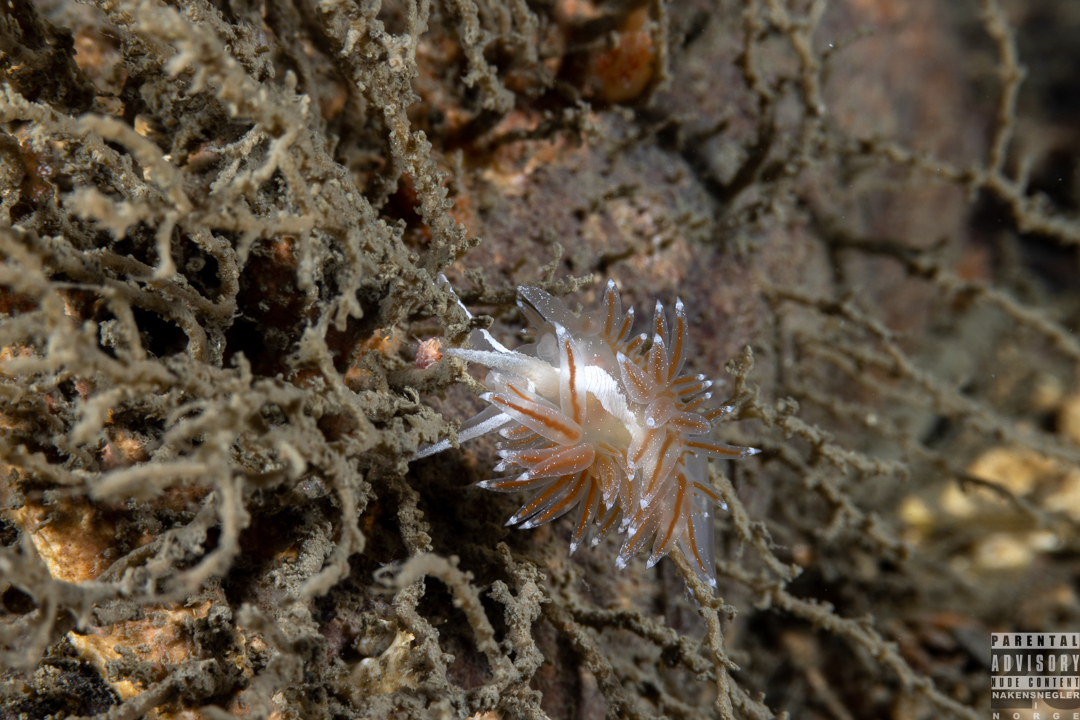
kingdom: Animalia
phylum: Mollusca
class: Gastropoda
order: Nudibranchia
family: Coryphellidae
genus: Coryphella
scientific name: Coryphella monicae
